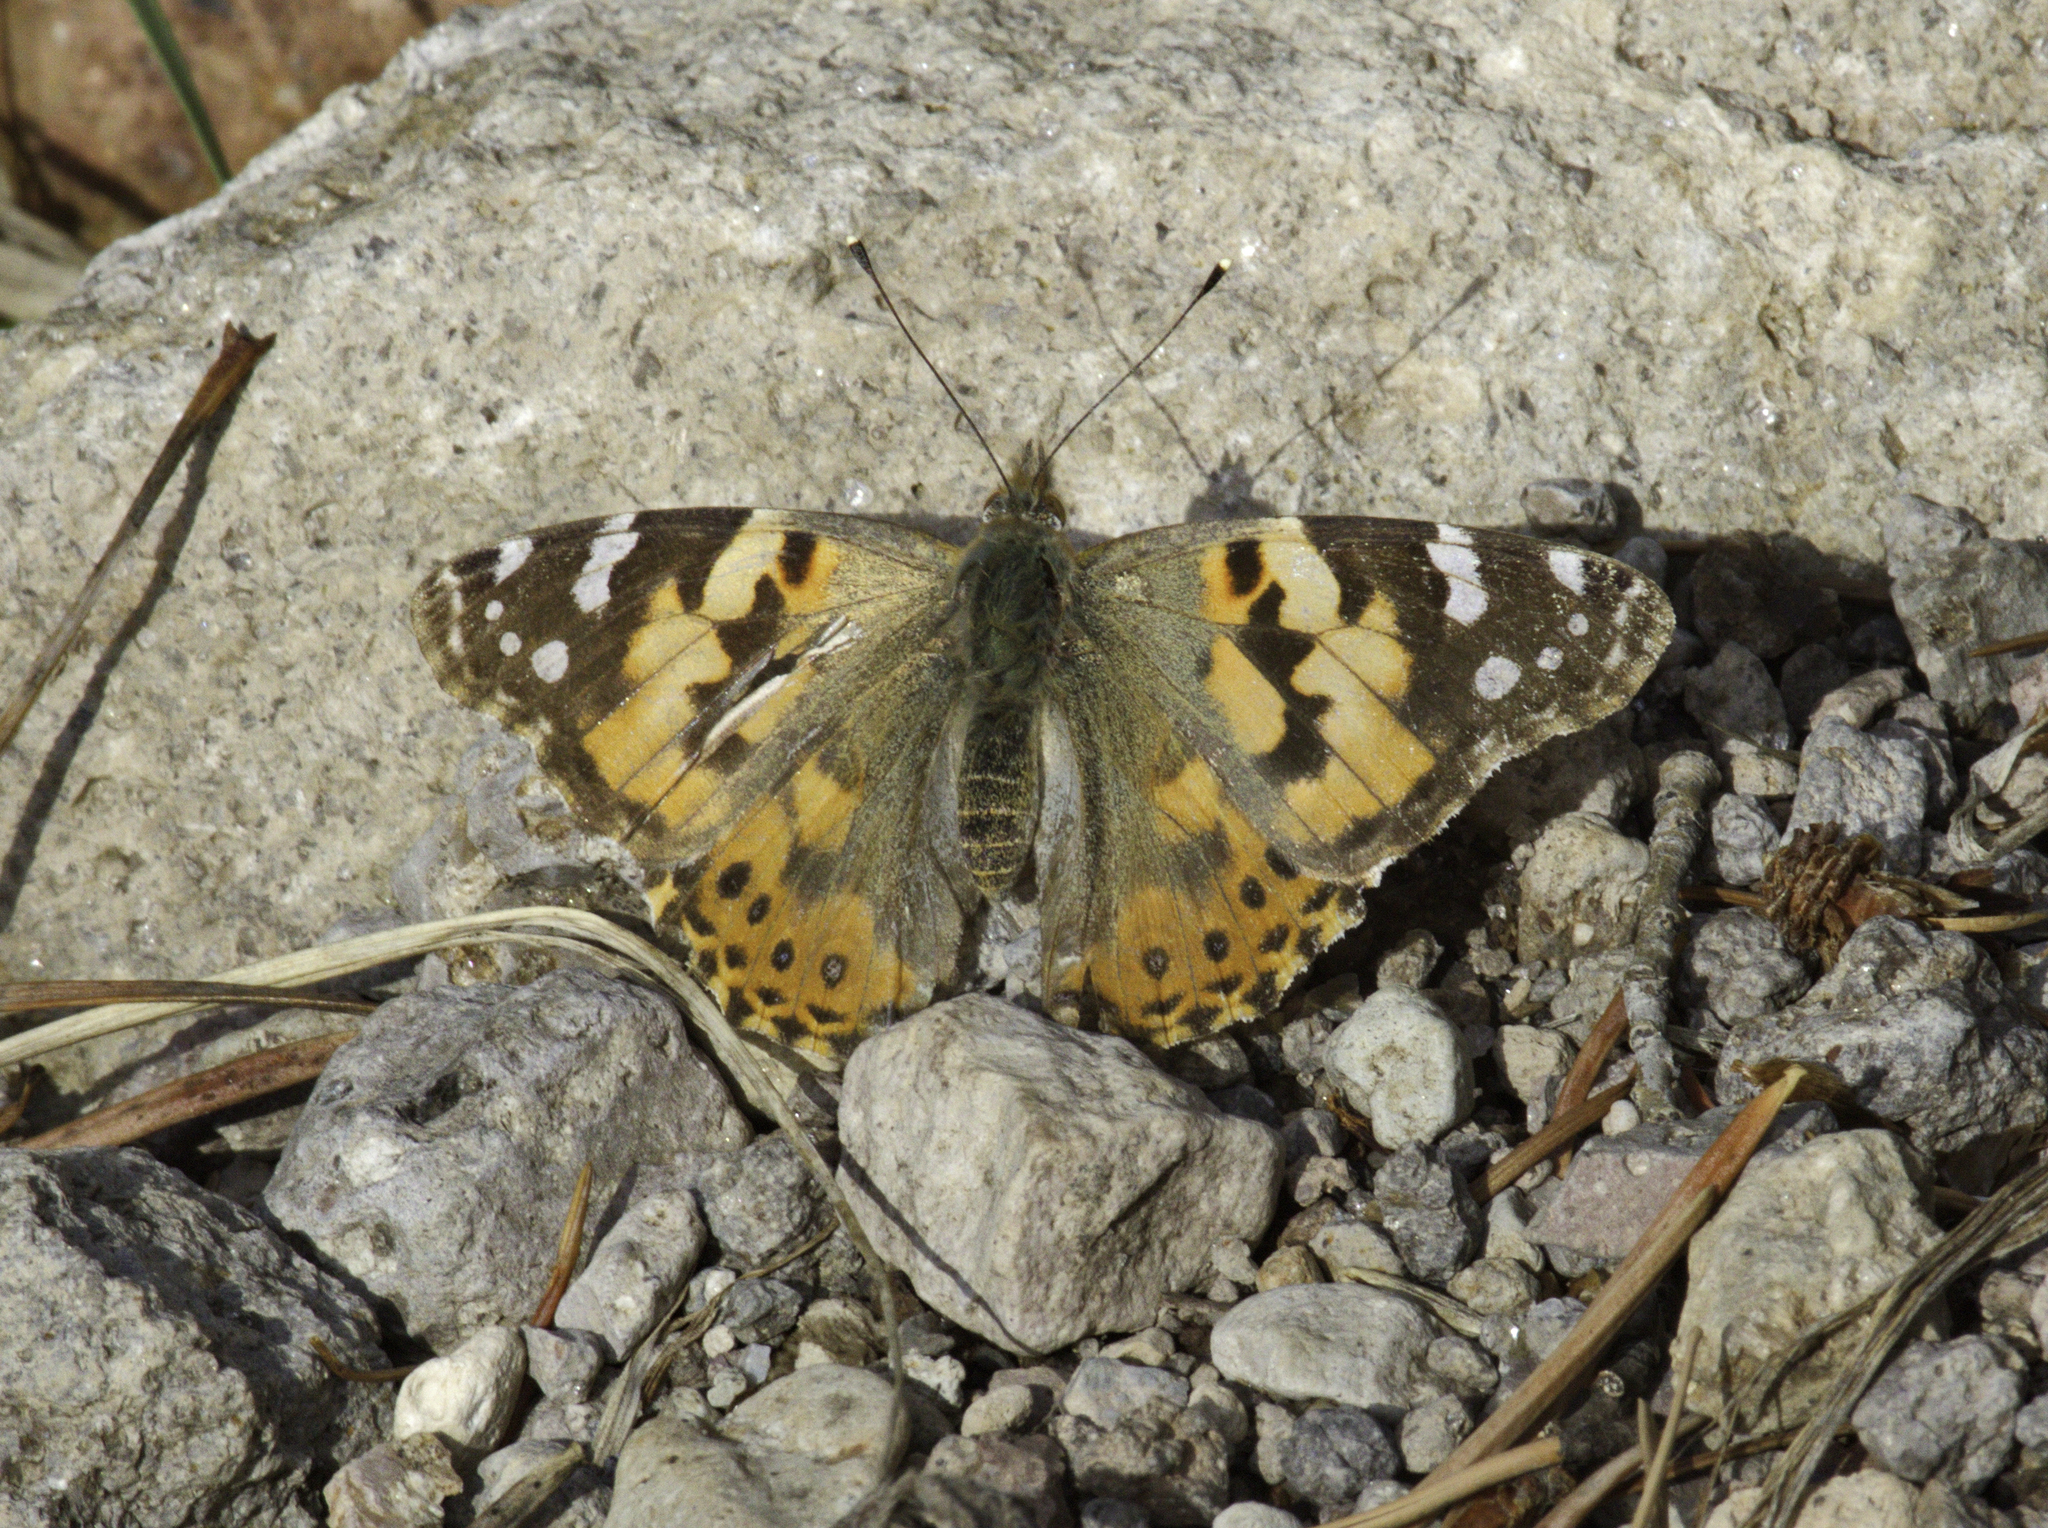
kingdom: Animalia
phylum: Arthropoda
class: Insecta
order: Lepidoptera
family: Nymphalidae
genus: Vanessa
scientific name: Vanessa cardui
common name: Painted lady
